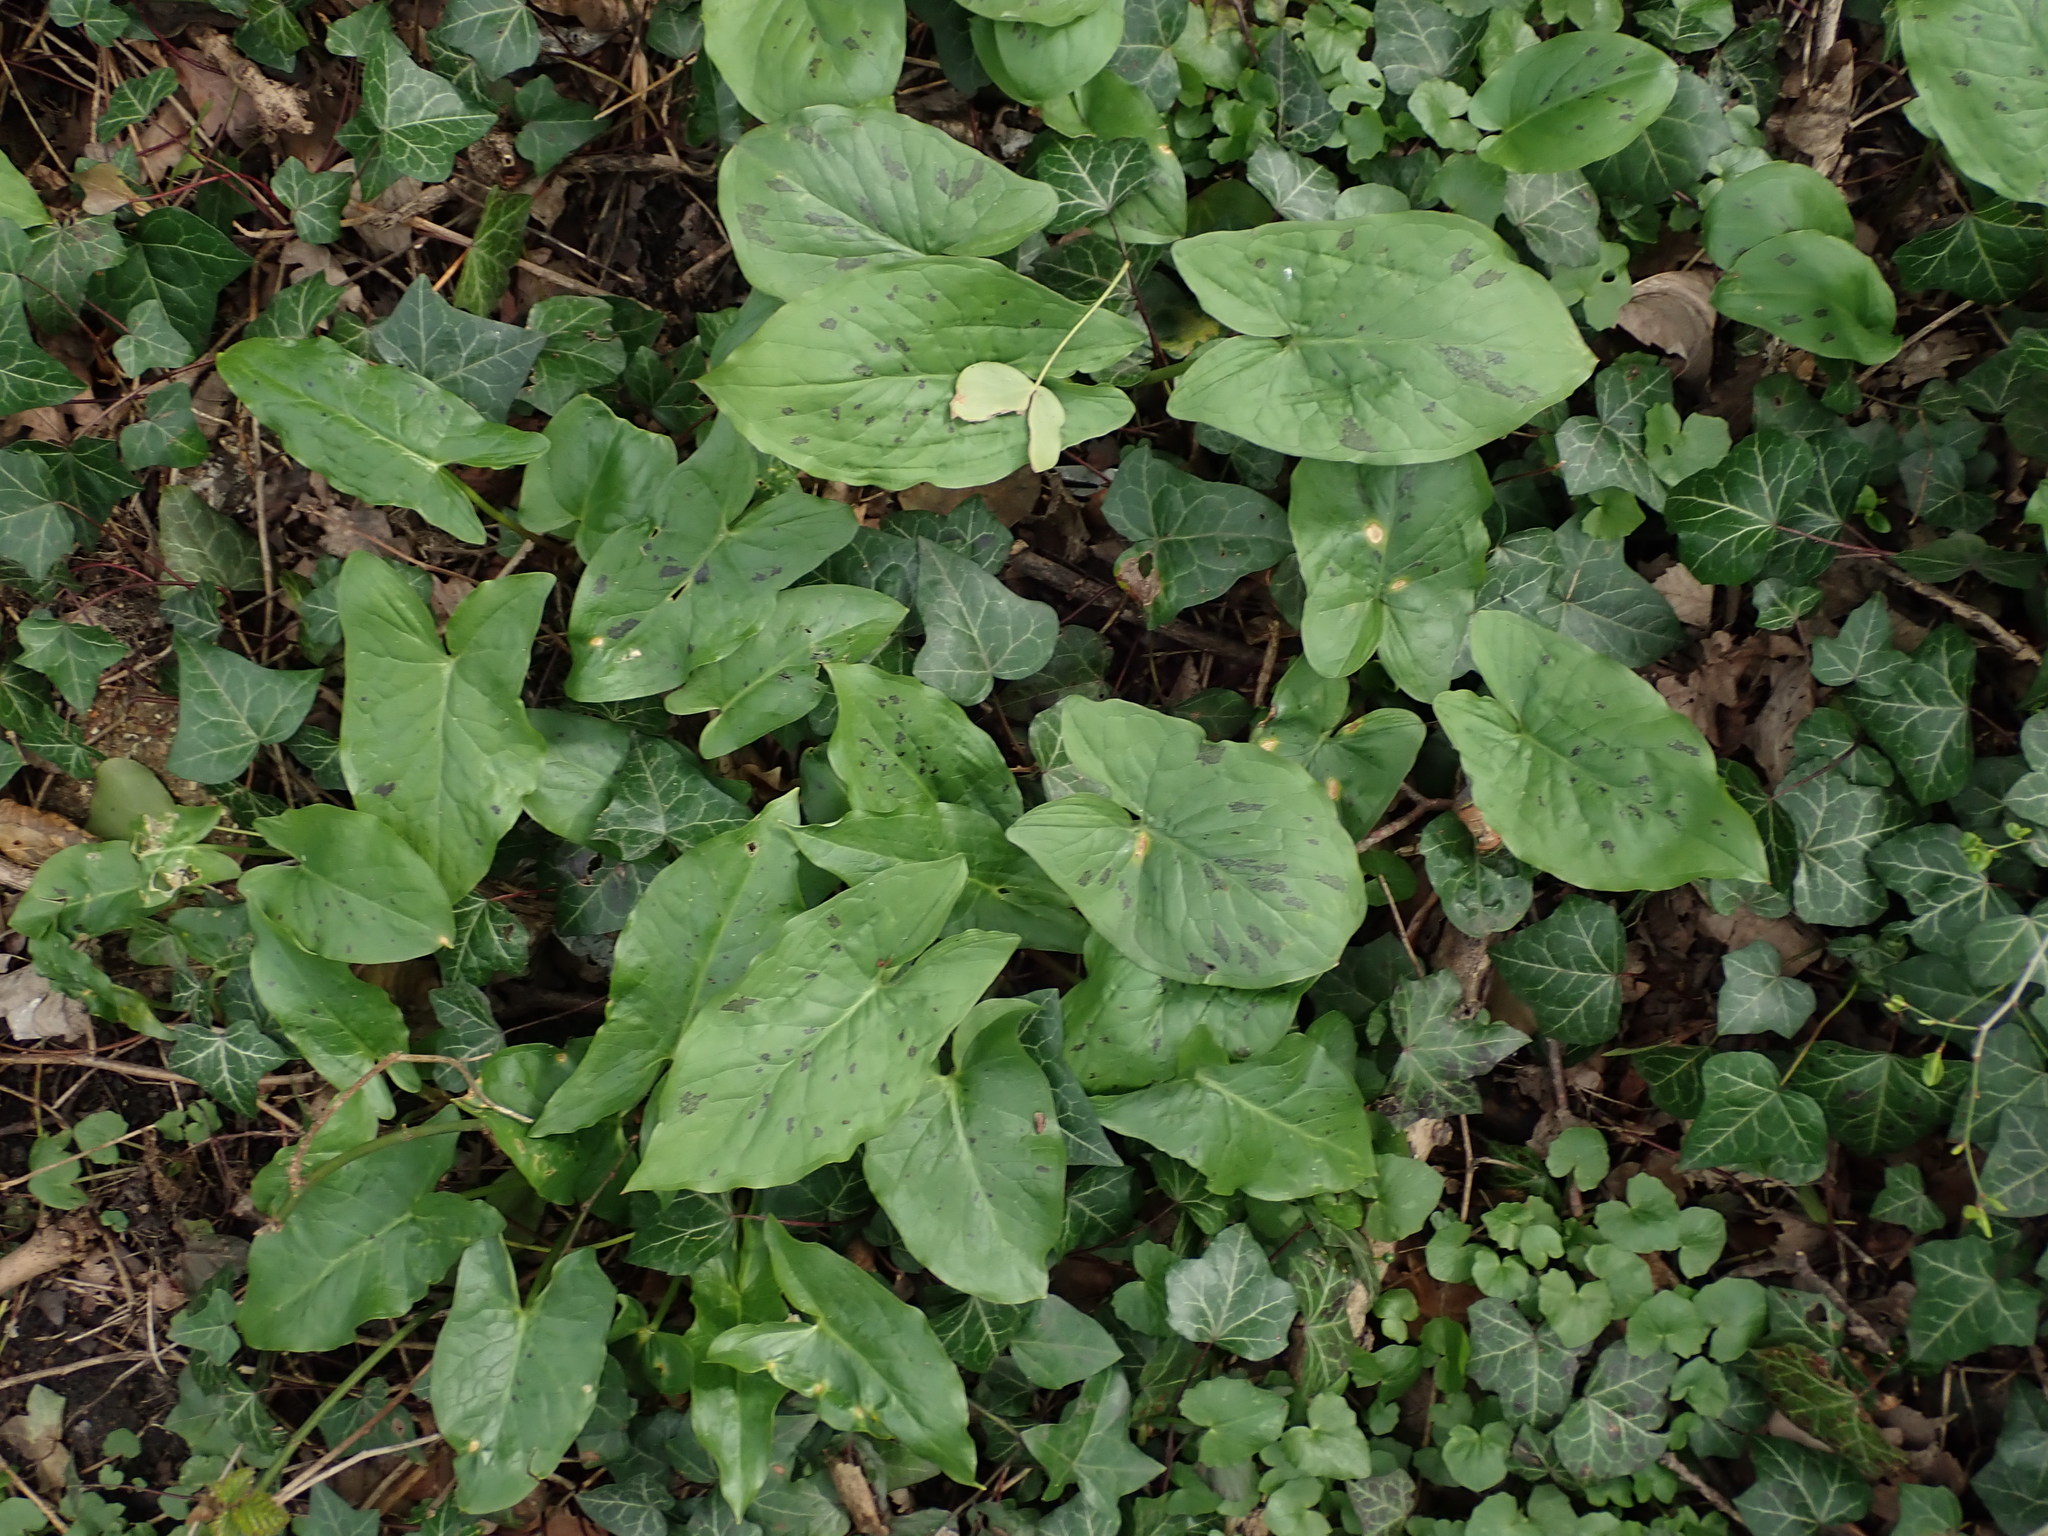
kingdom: Plantae
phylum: Tracheophyta
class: Liliopsida
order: Alismatales
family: Araceae
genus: Arum
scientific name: Arum maculatum
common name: Lords-and-ladies
